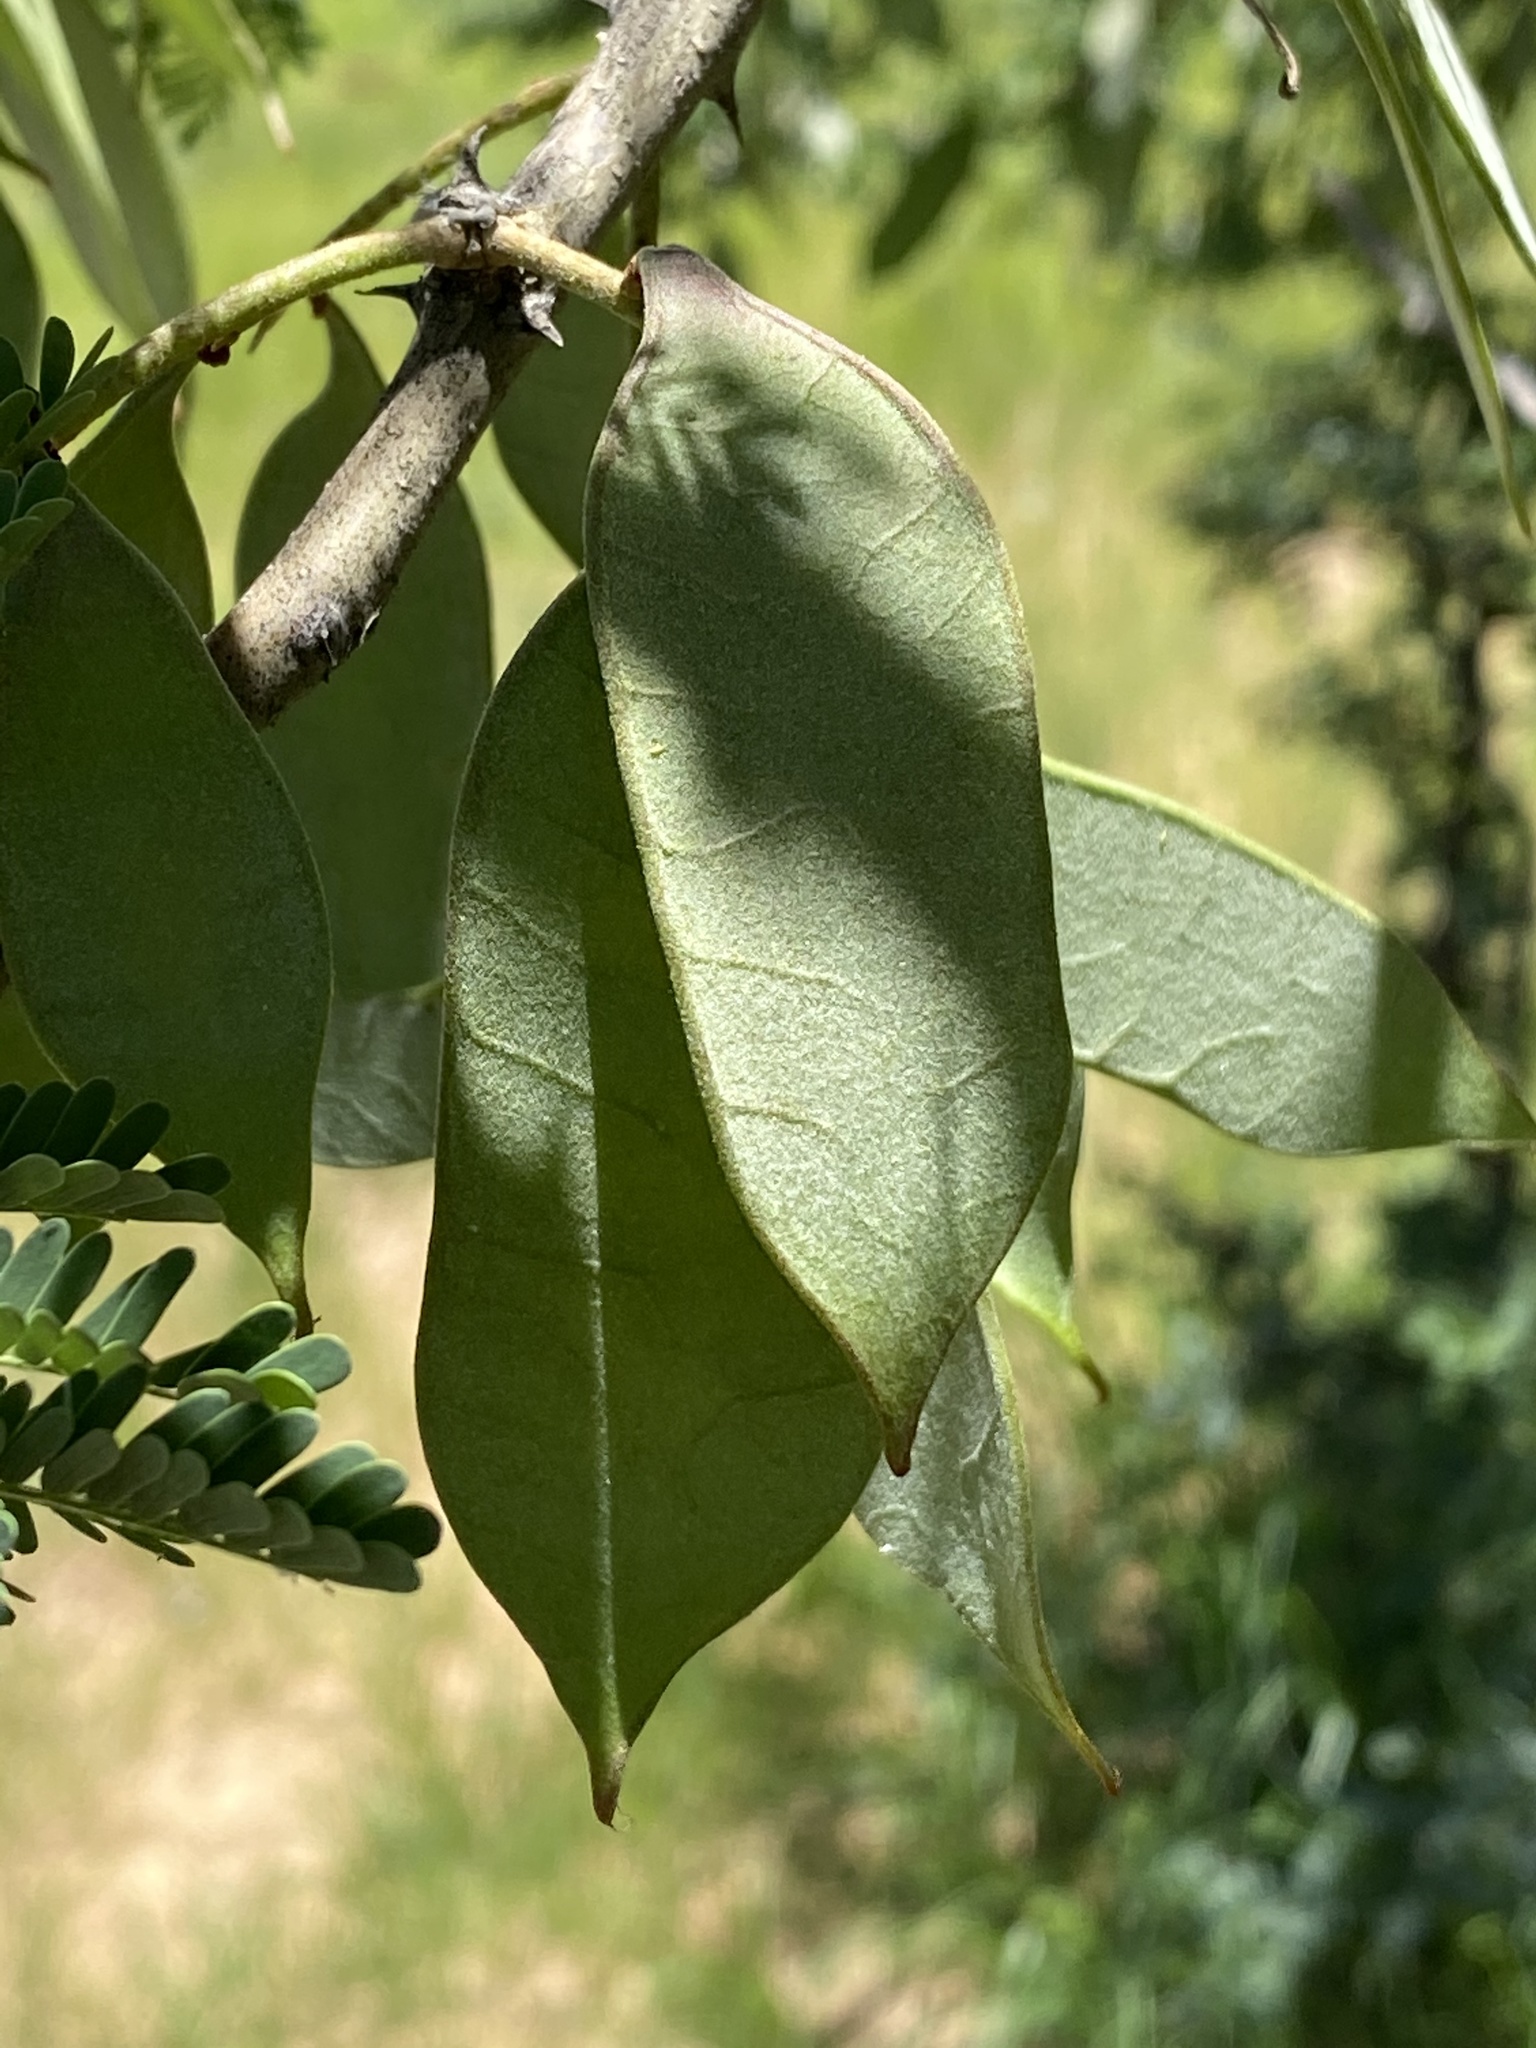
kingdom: Plantae
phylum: Tracheophyta
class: Magnoliopsida
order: Fabales
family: Fabaceae
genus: Senegalia
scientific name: Senegalia erubescens
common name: Bluethorn
